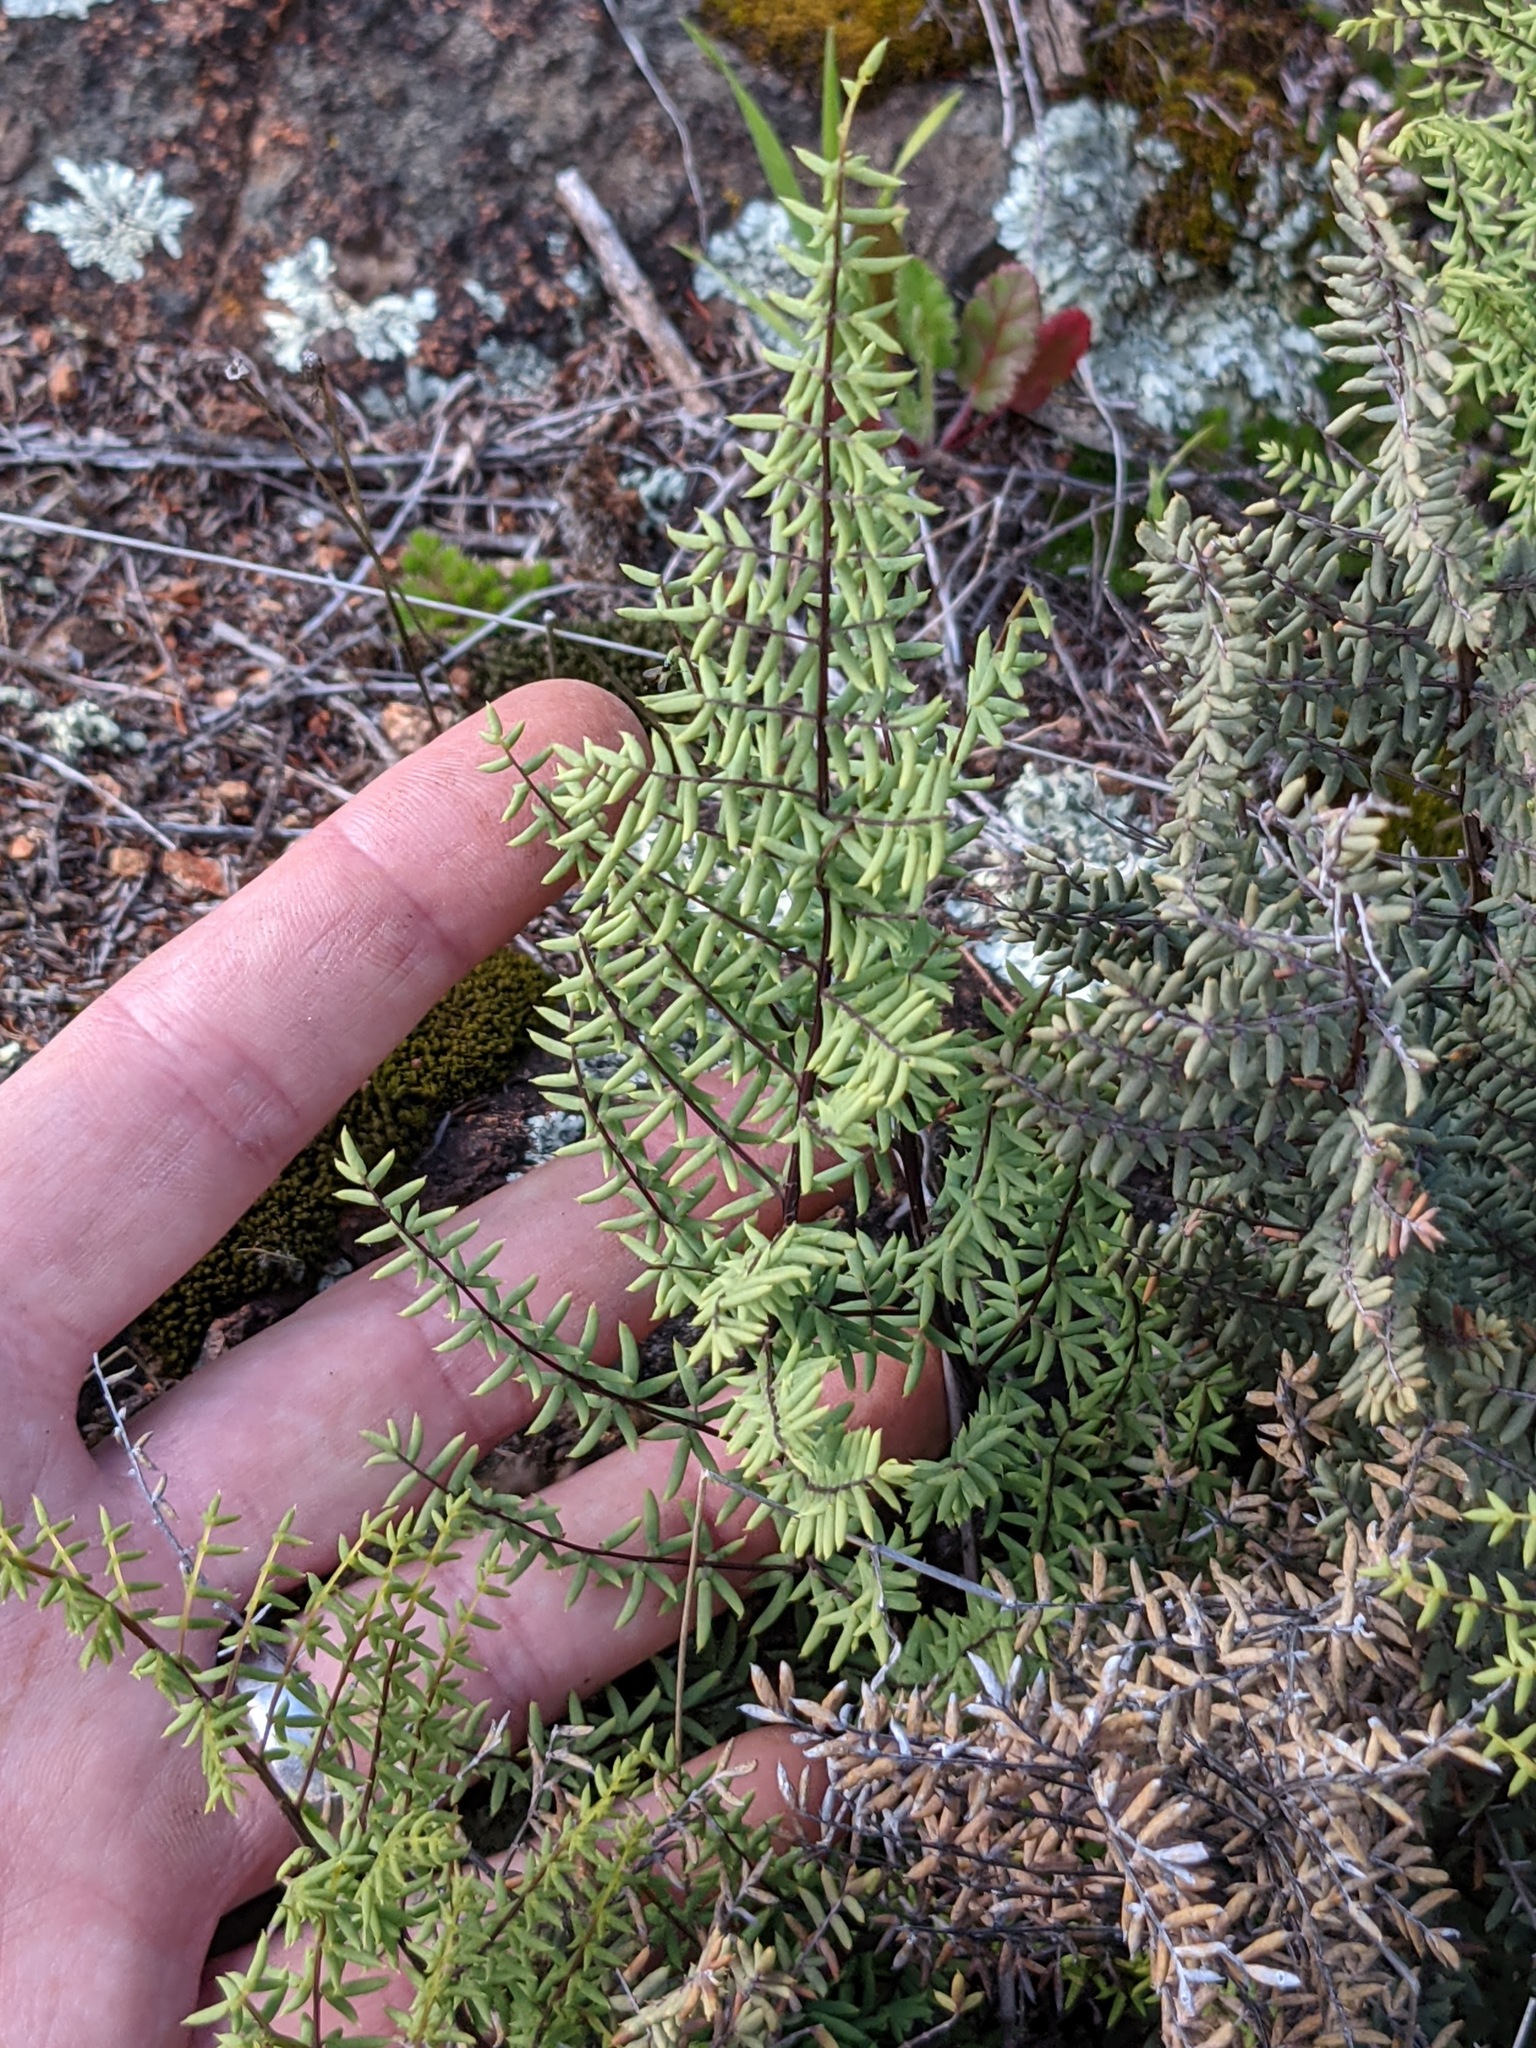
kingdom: Plantae
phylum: Tracheophyta
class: Polypodiopsida
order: Polypodiales
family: Pteridaceae
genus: Pellaea
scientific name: Pellaea mucronata
